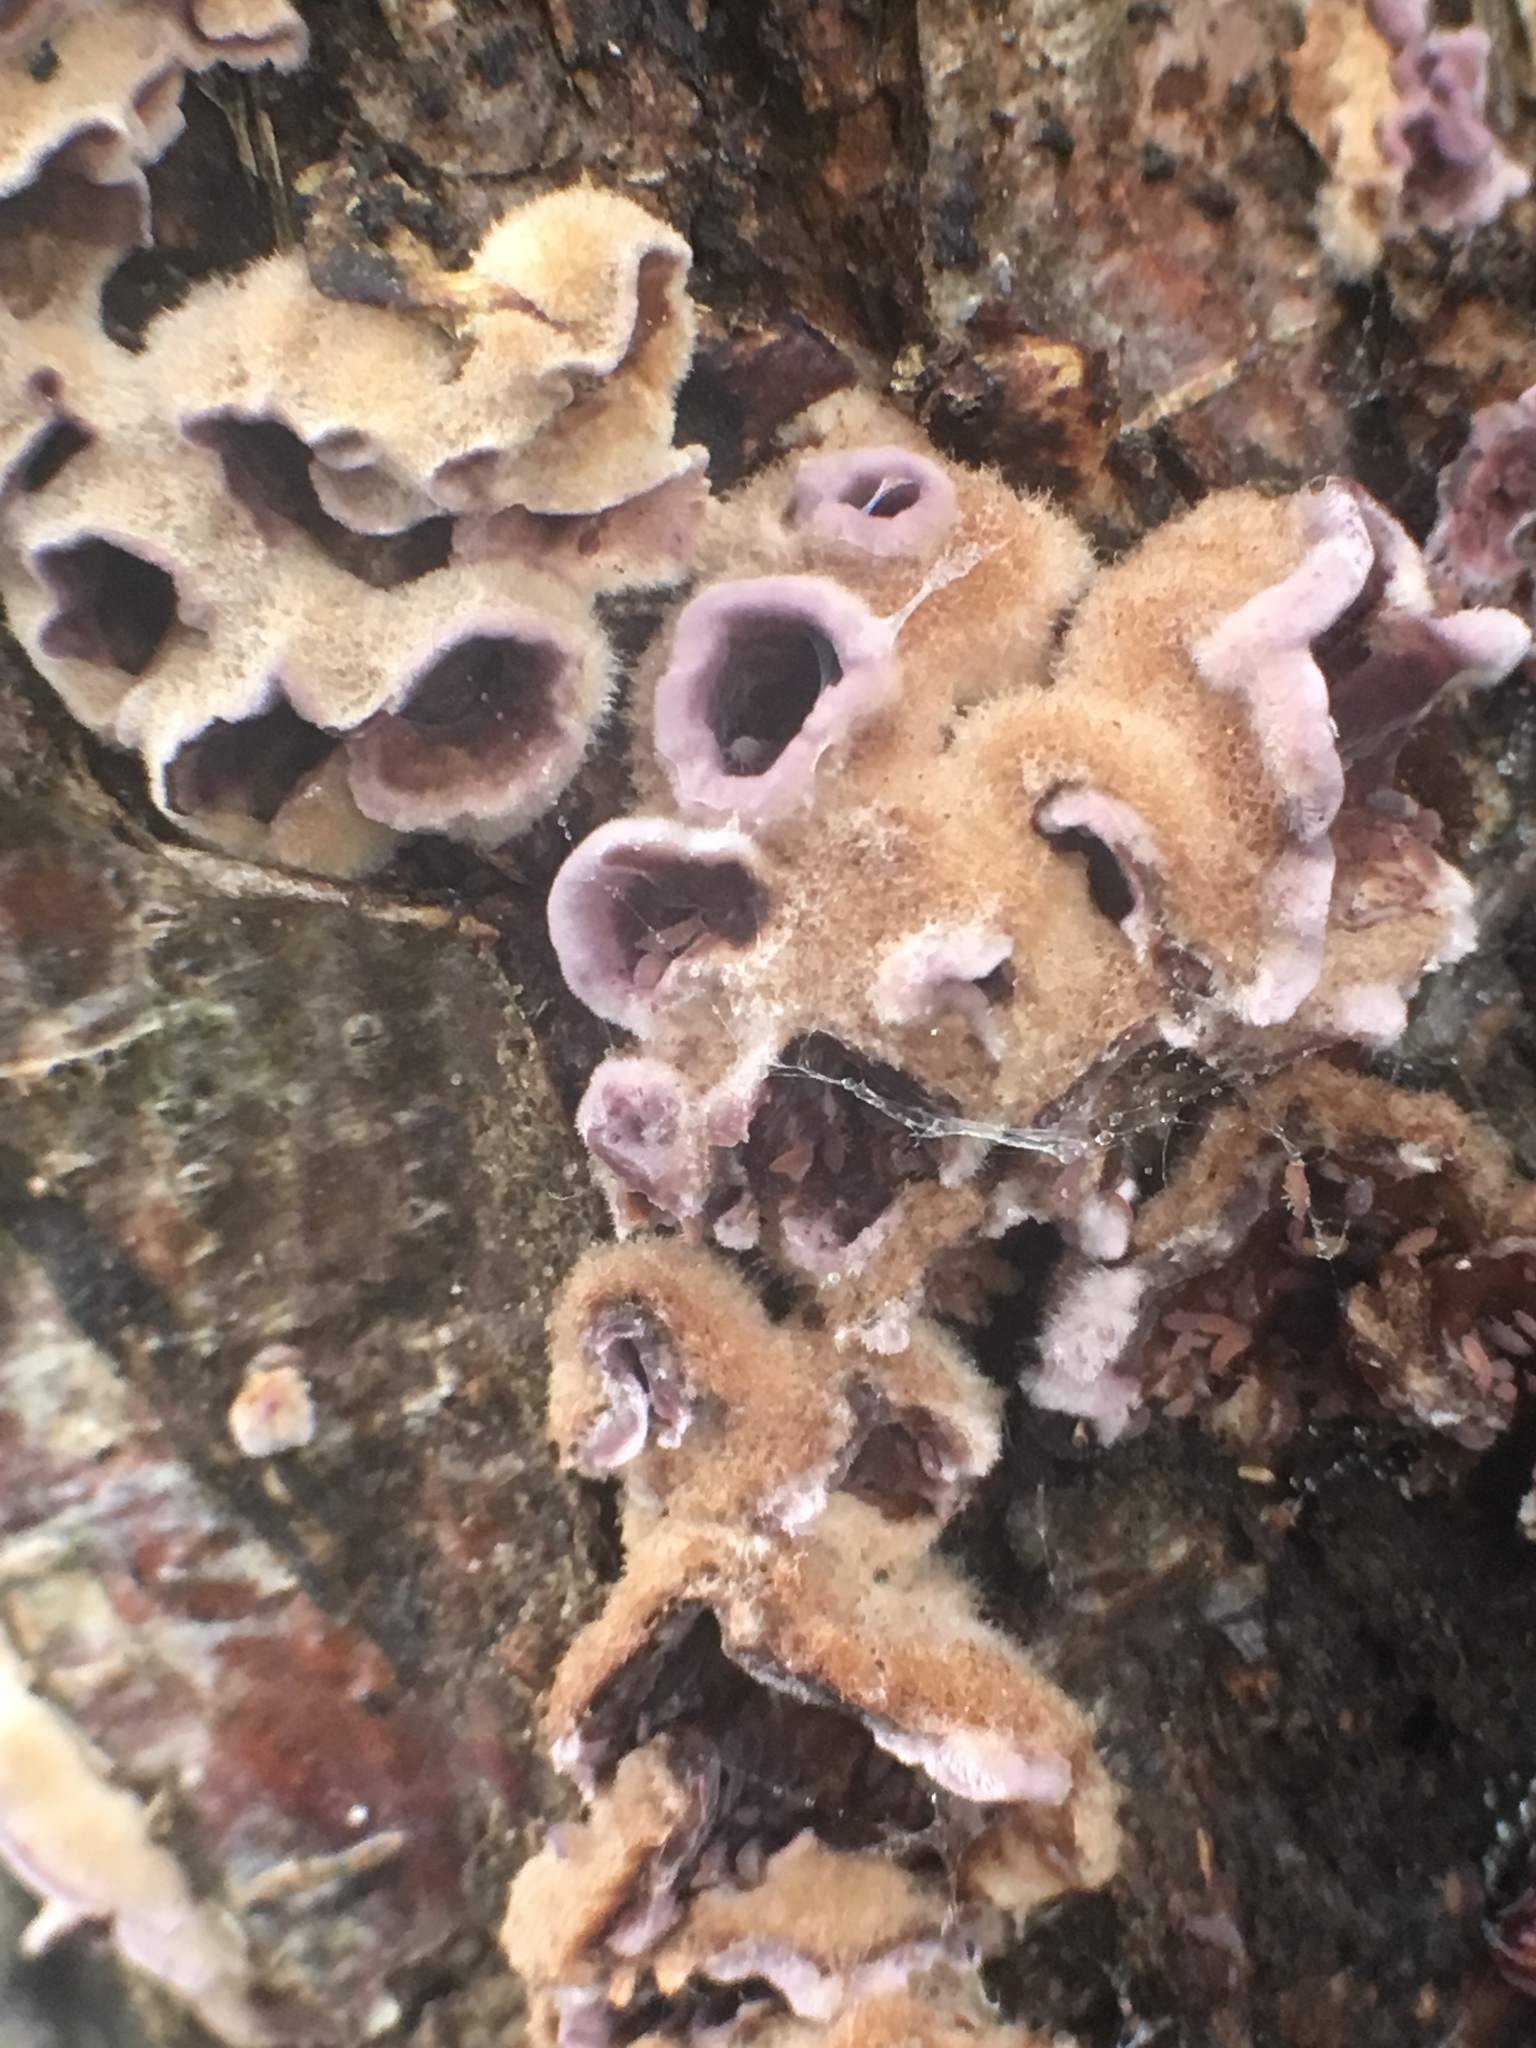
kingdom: Fungi
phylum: Basidiomycota
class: Agaricomycetes
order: Agaricales
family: Cyphellaceae
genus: Chondrostereum
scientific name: Chondrostereum purpureum
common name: Silver leaf disease
